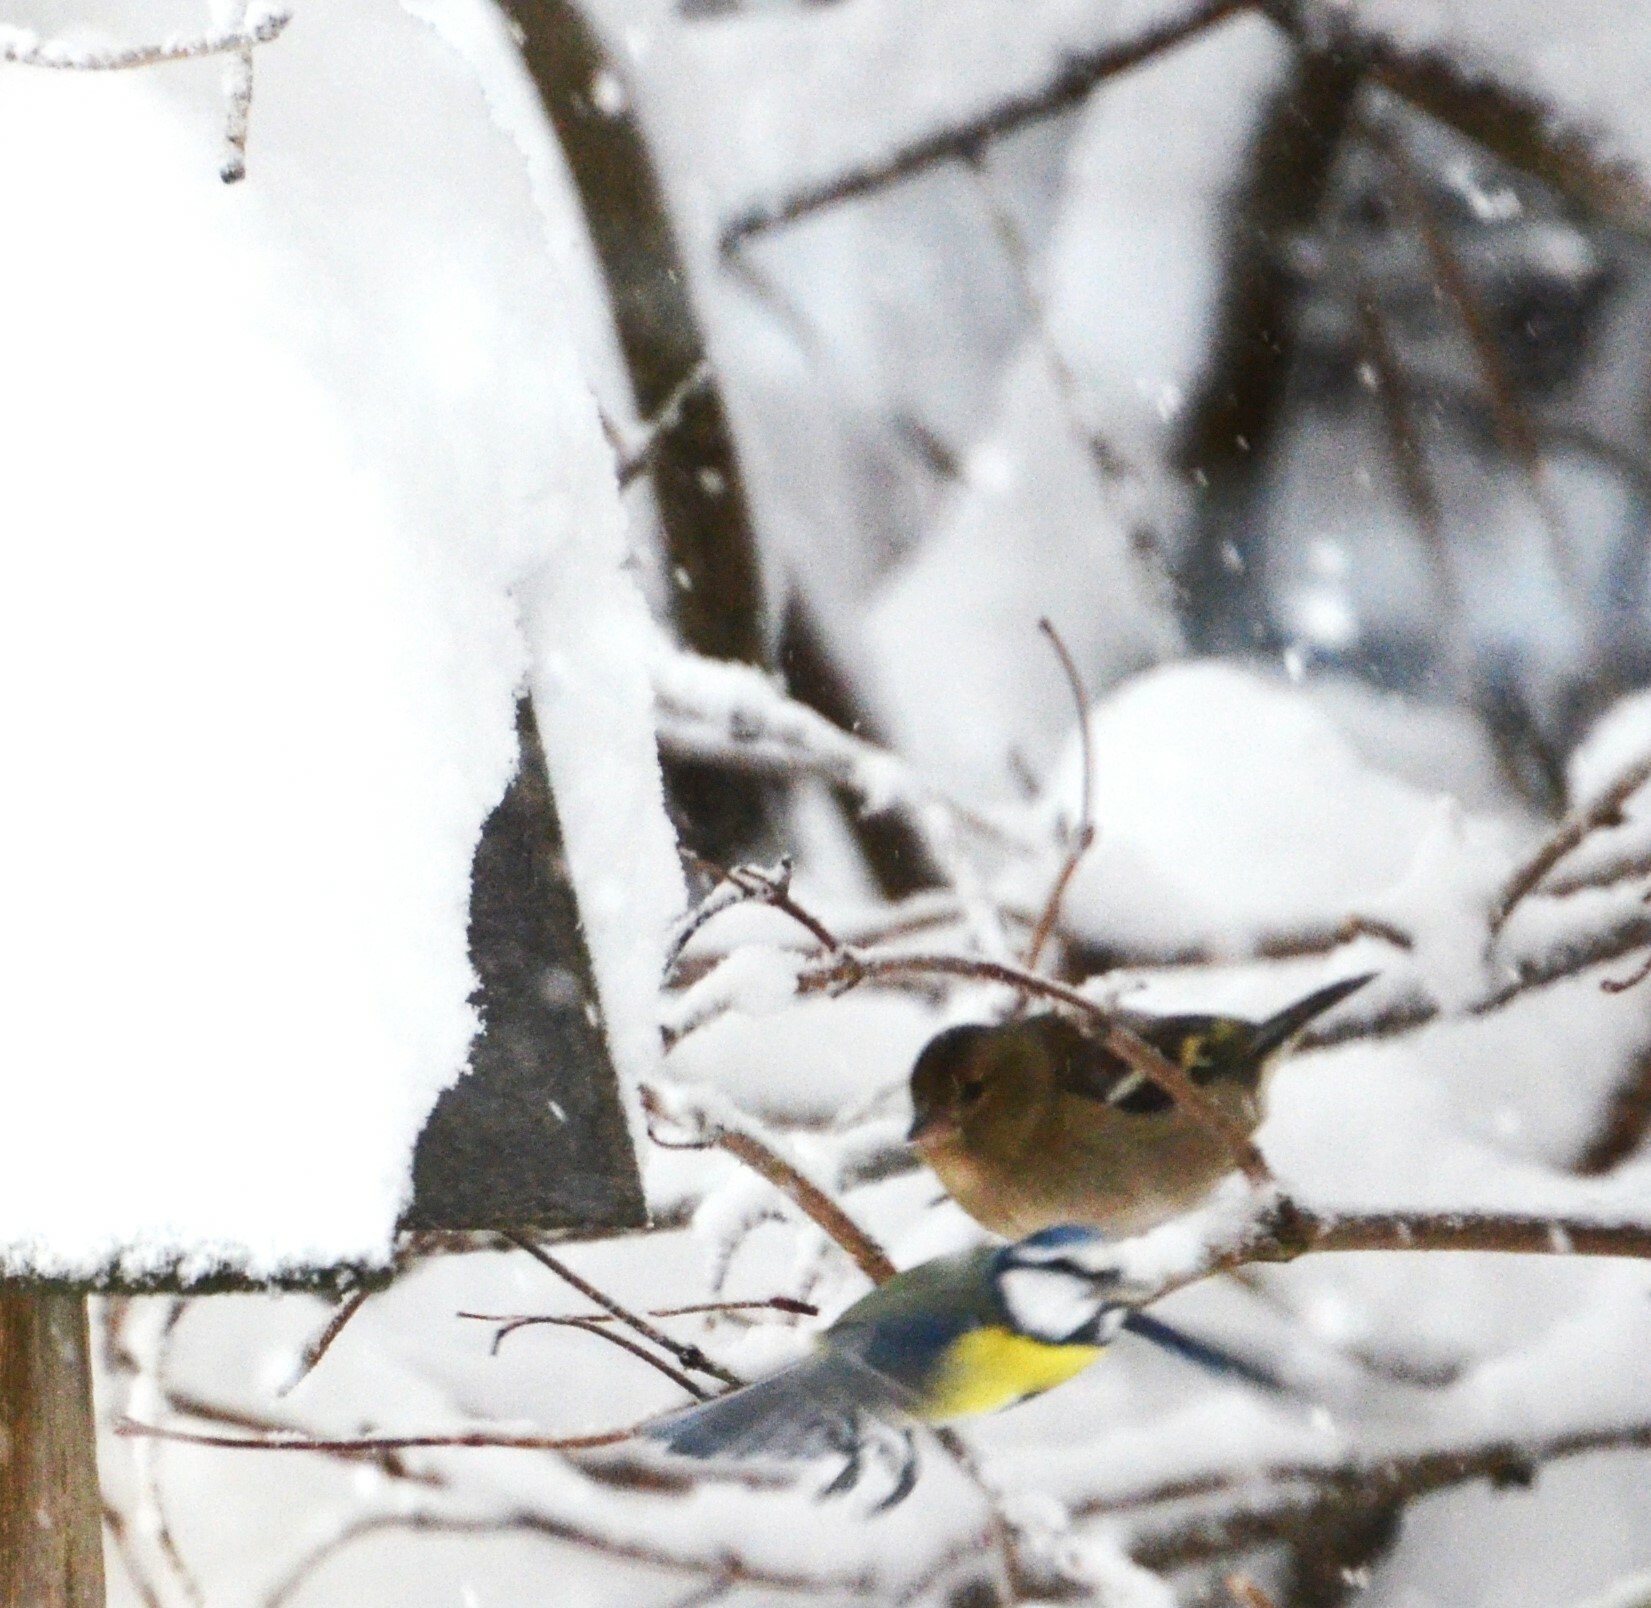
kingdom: Animalia
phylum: Chordata
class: Aves
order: Passeriformes
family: Fringillidae
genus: Fringilla
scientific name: Fringilla coelebs
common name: Common chaffinch
